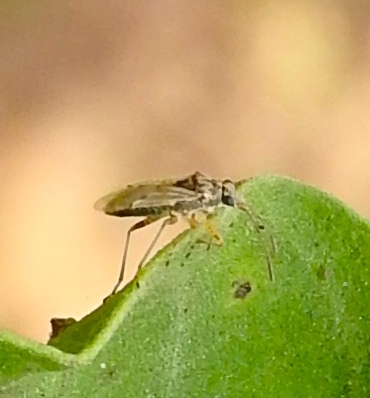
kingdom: Animalia
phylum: Arthropoda
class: Insecta
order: Hemiptera
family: Lygaeidae
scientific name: Lygaeidae
